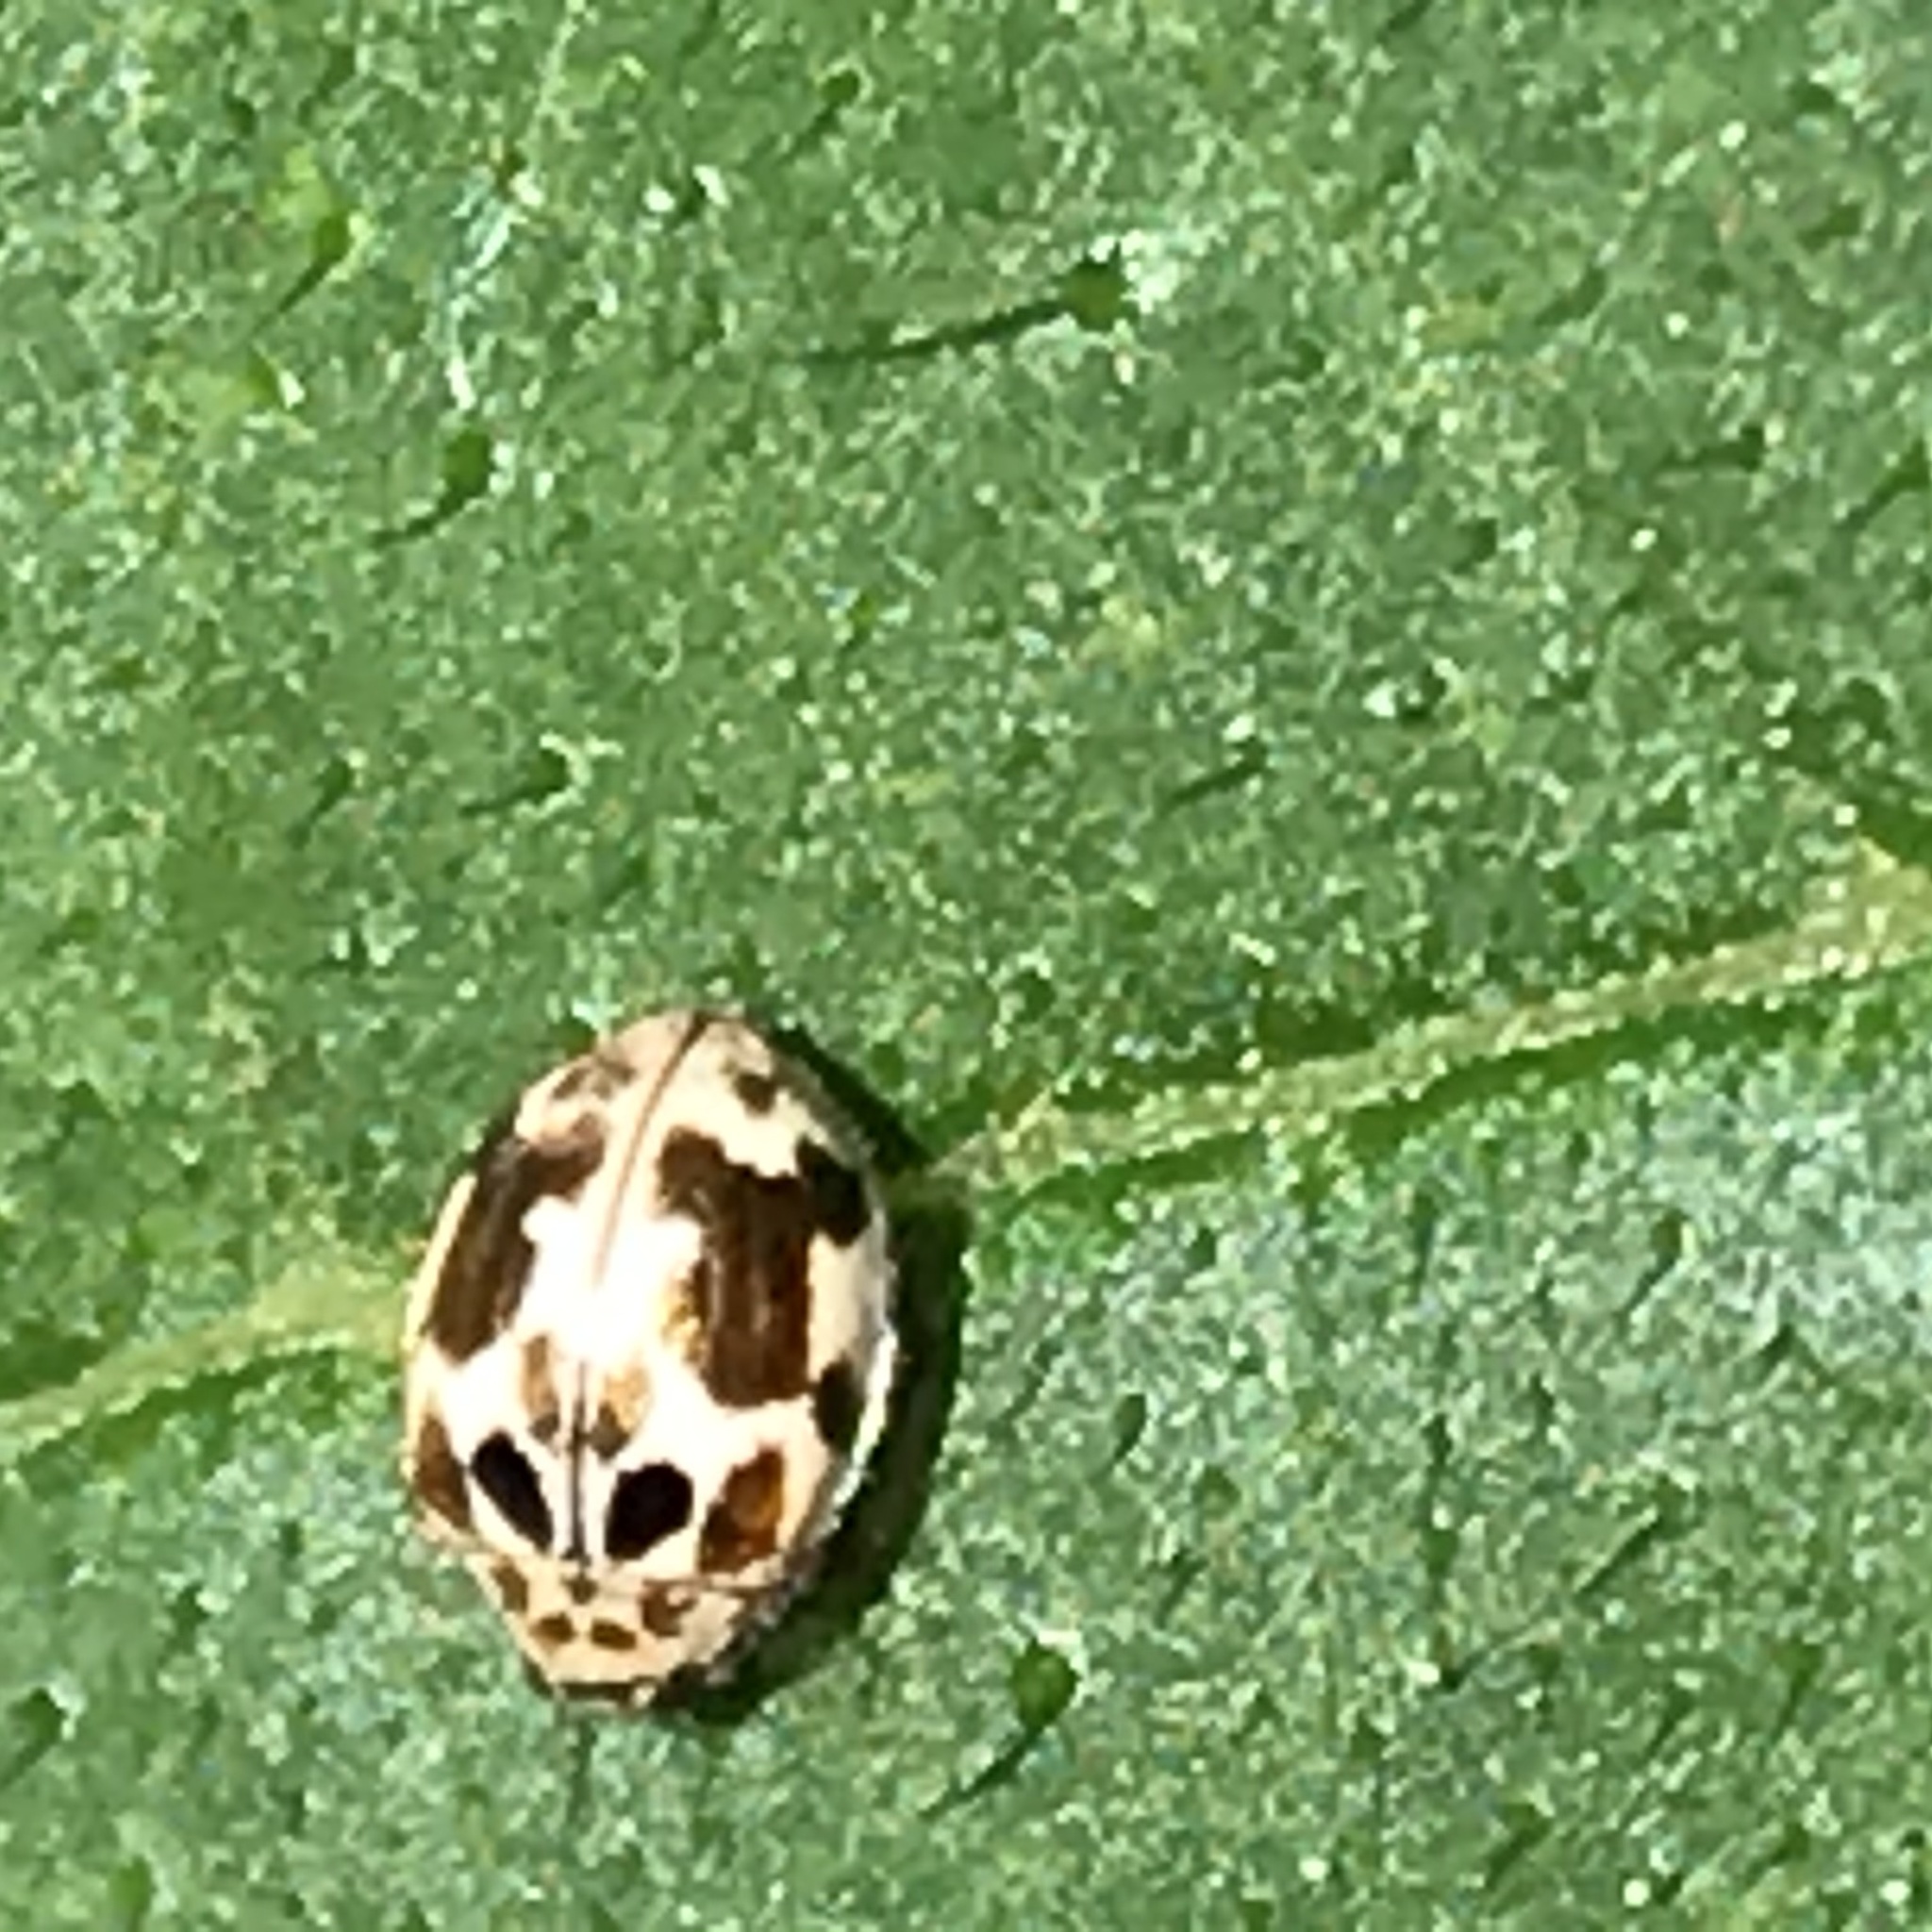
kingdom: Animalia
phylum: Arthropoda
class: Insecta
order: Coleoptera
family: Coccinellidae
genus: Psyllobora
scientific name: Psyllobora vigintimaculata
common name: Ladybird beetle
